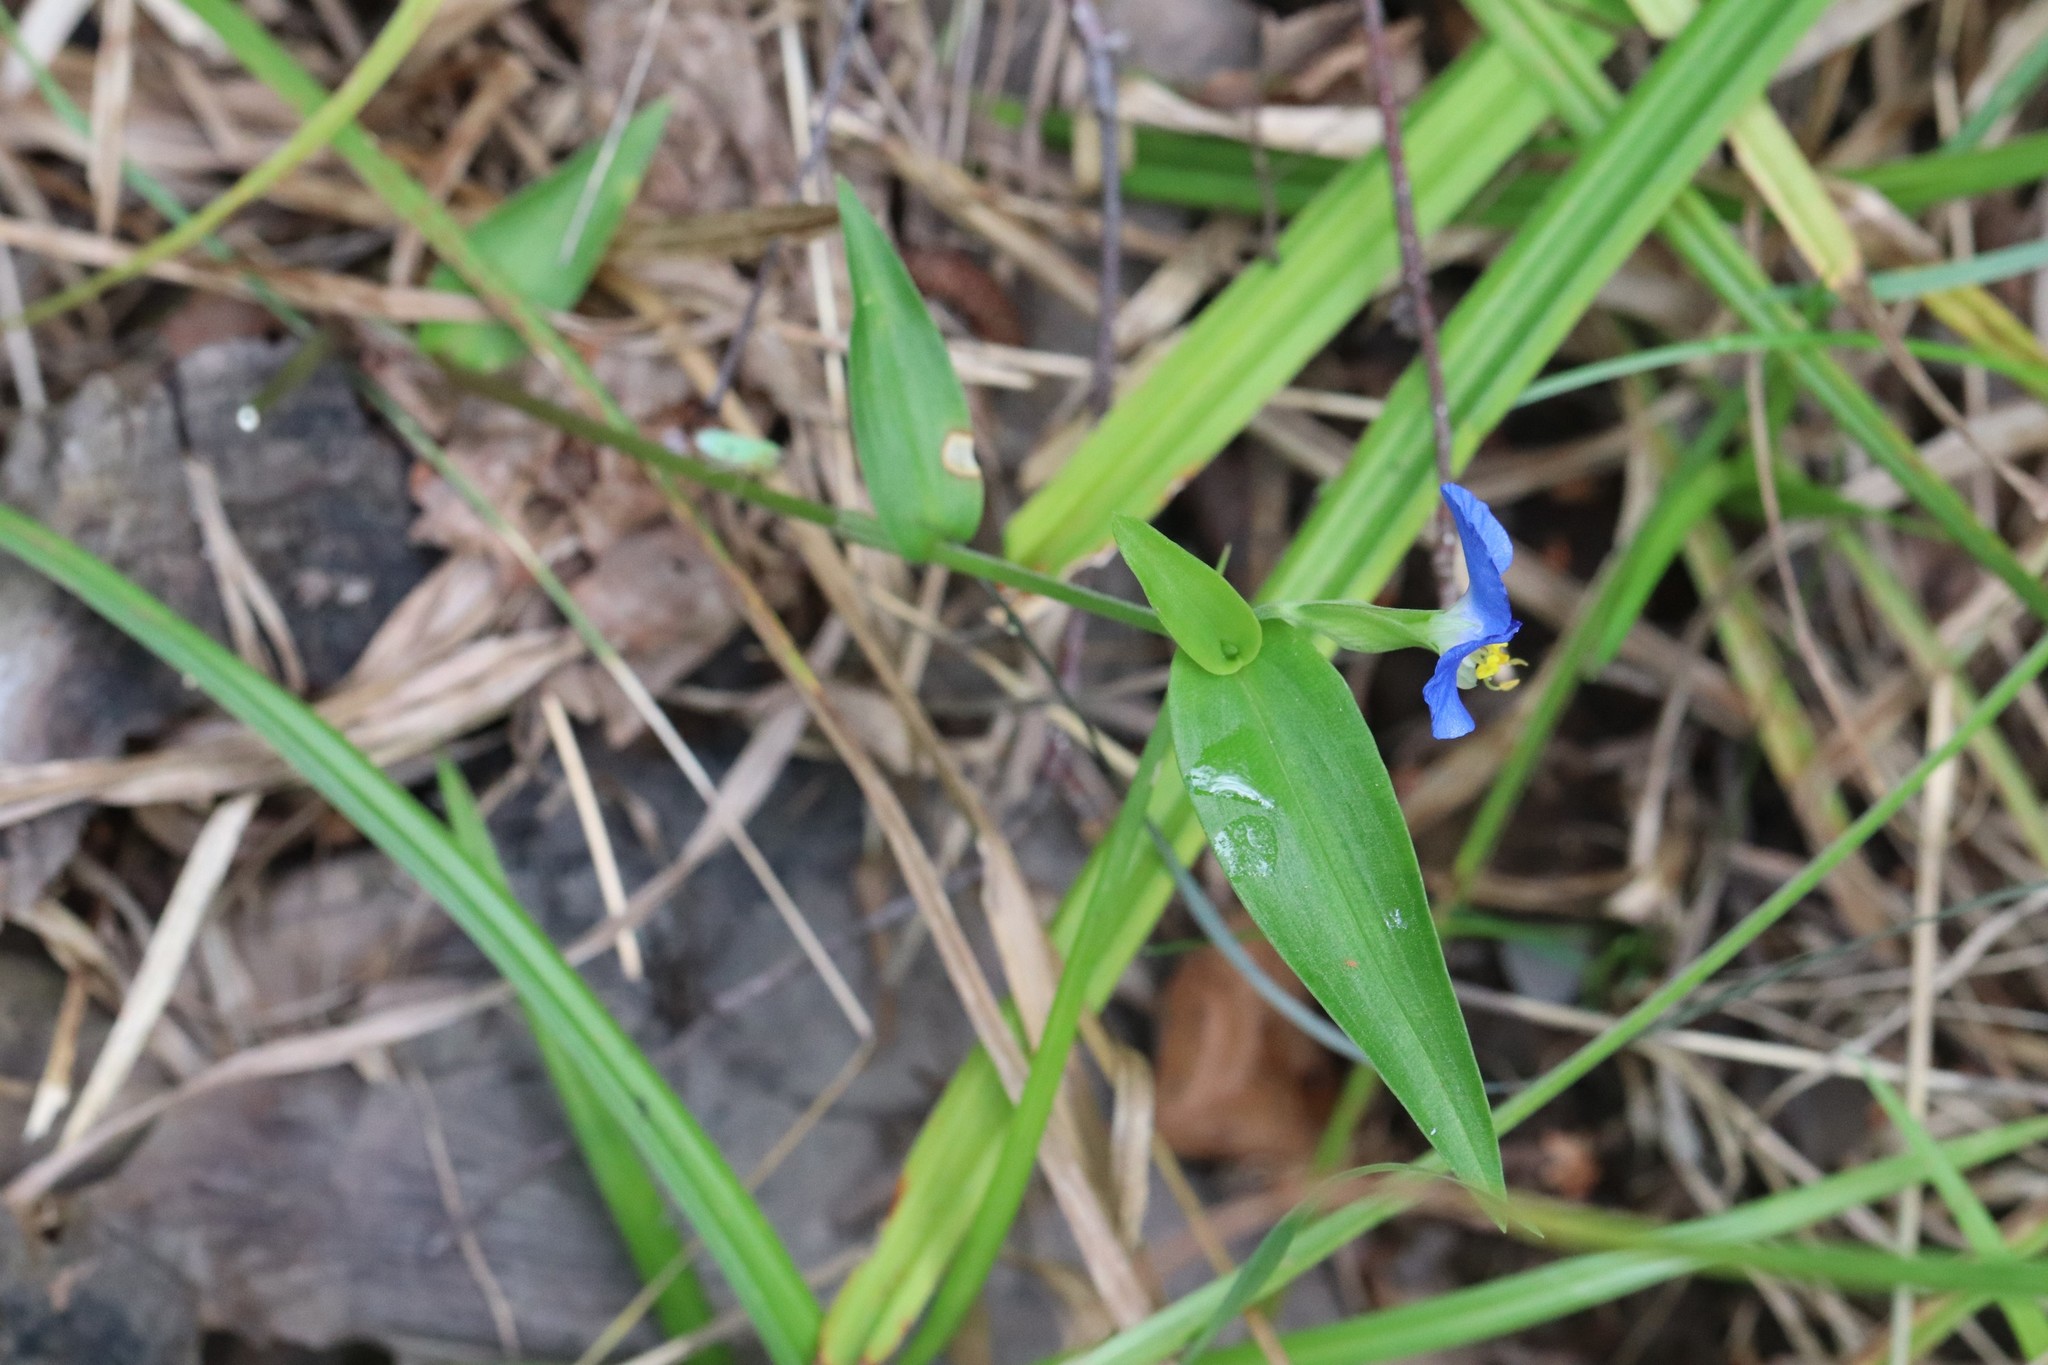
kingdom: Plantae
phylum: Tracheophyta
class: Liliopsida
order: Commelinales
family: Commelinaceae
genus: Commelina
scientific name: Commelina communis
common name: Asiatic dayflower
